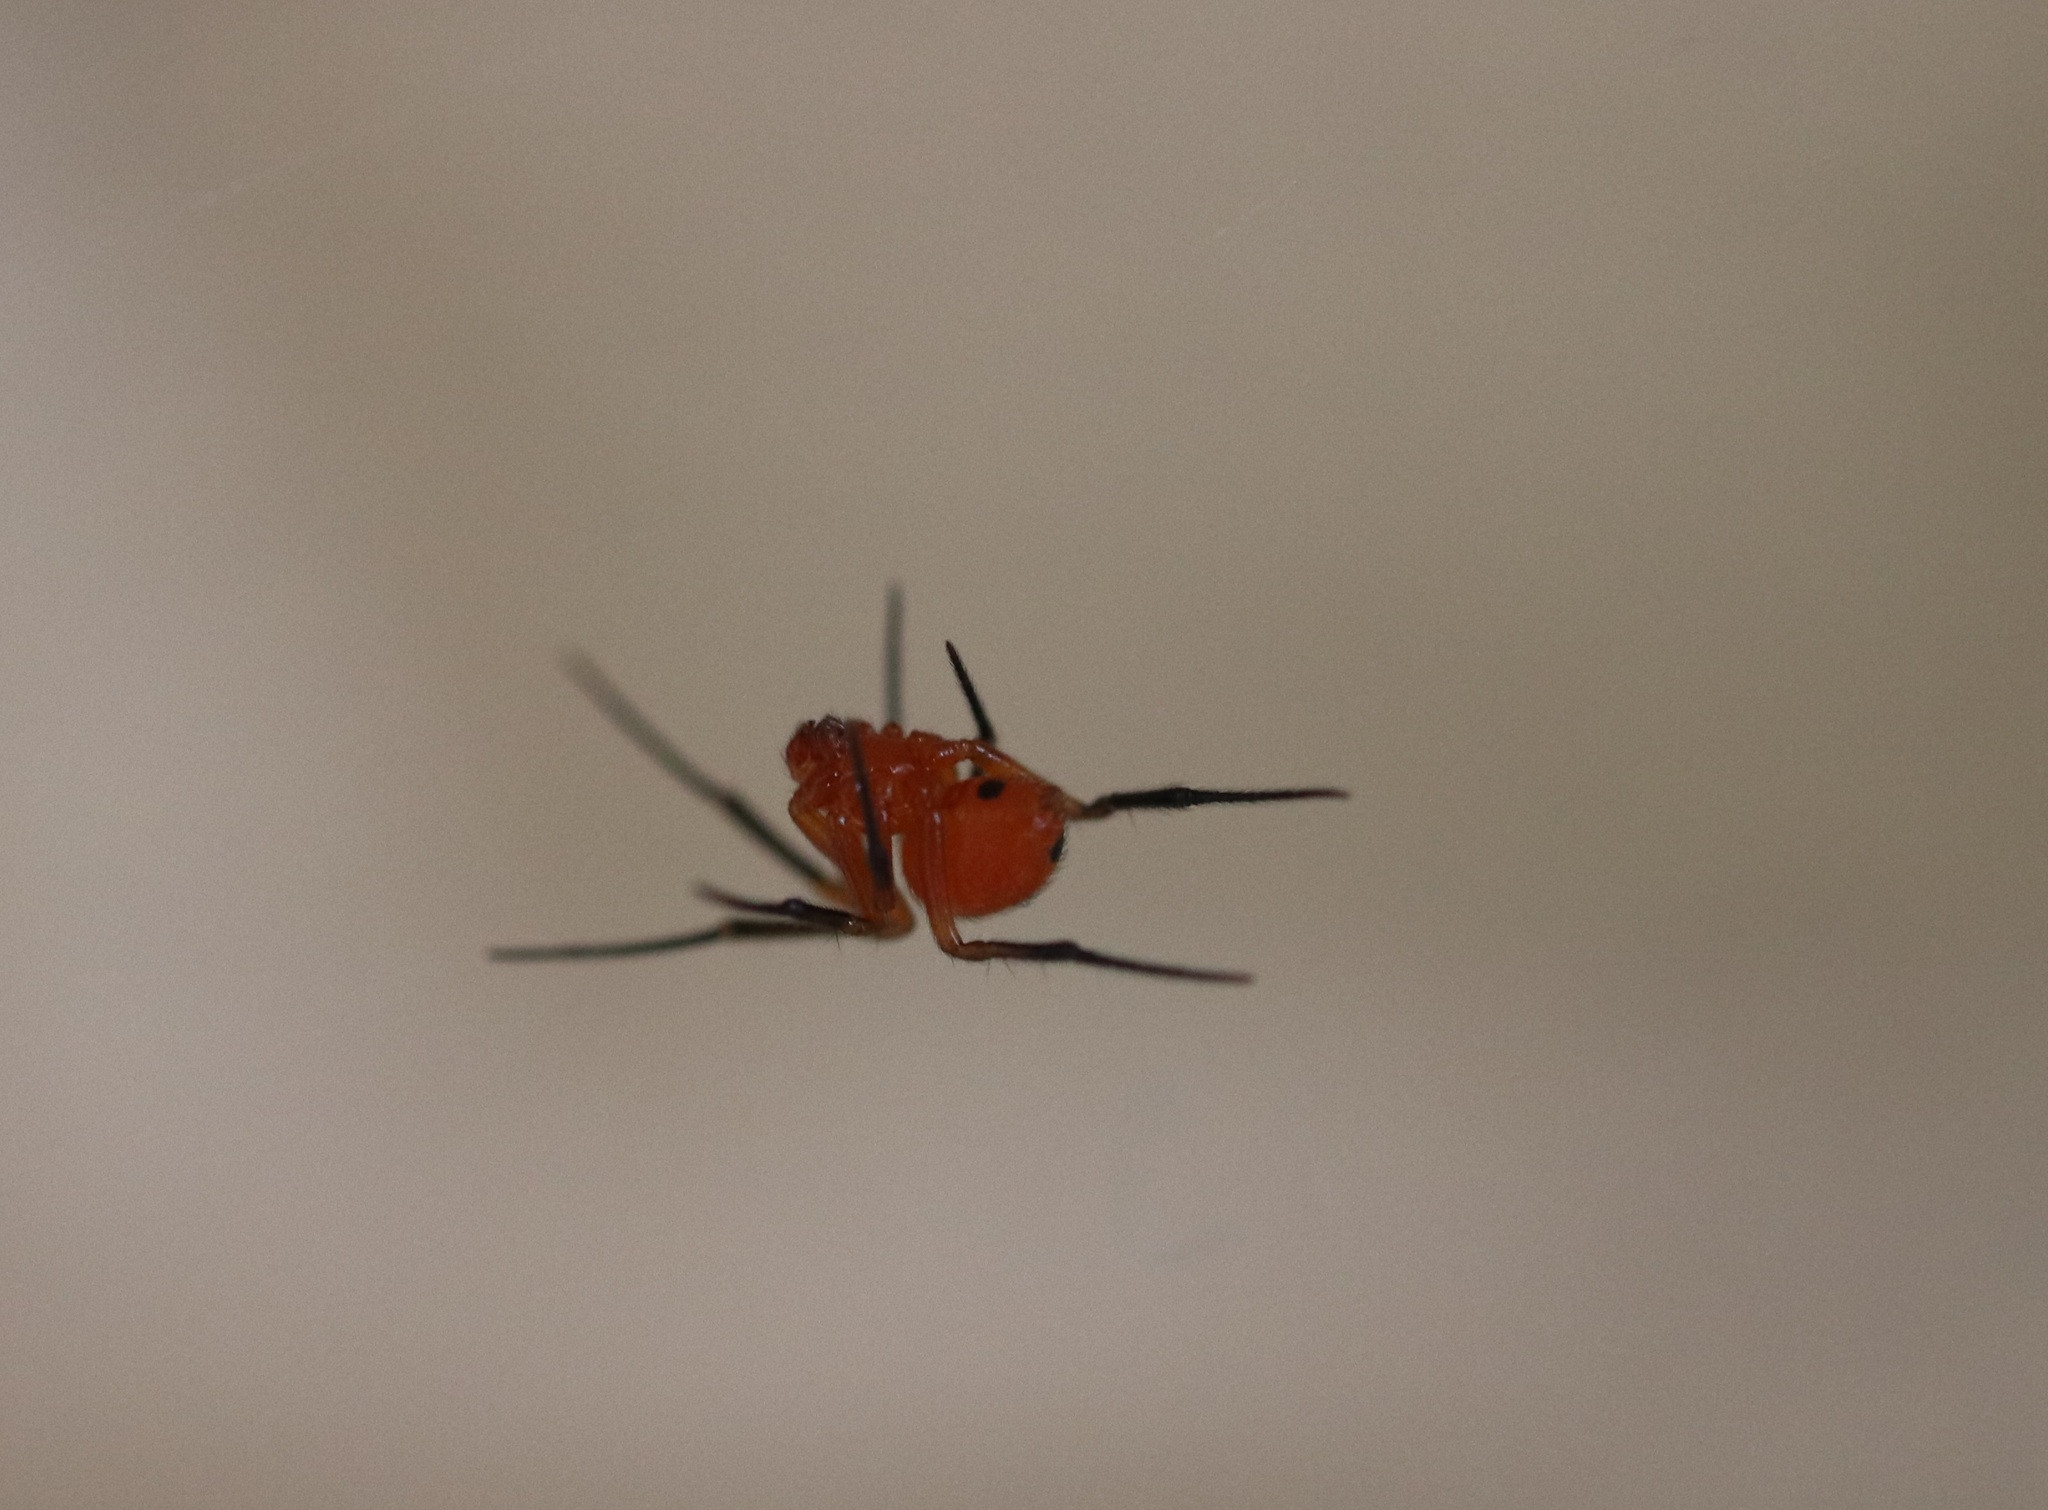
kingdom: Animalia
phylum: Arthropoda
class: Arachnida
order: Araneae
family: Theridiidae
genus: Nihonhimea
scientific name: Nihonhimea japonica
